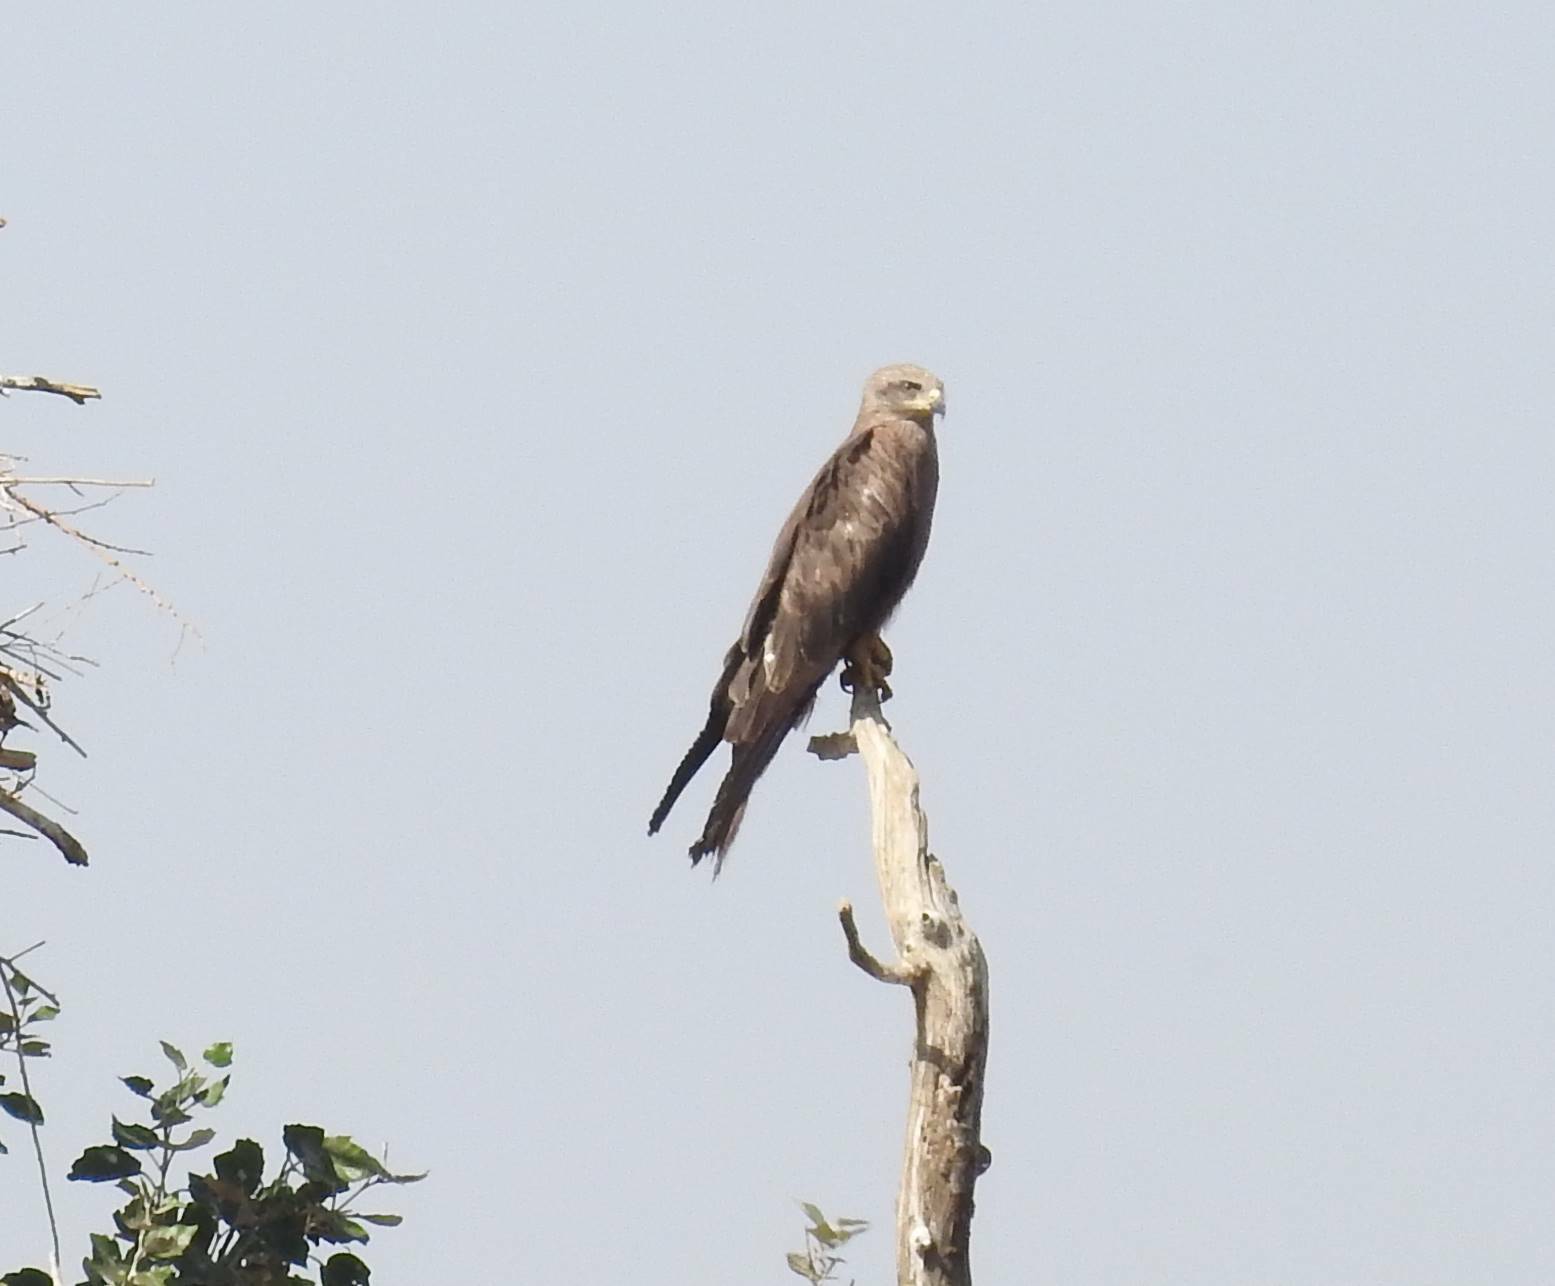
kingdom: Animalia
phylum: Chordata
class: Aves
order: Accipitriformes
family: Accipitridae
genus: Milvus
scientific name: Milvus migrans
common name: Black kite
